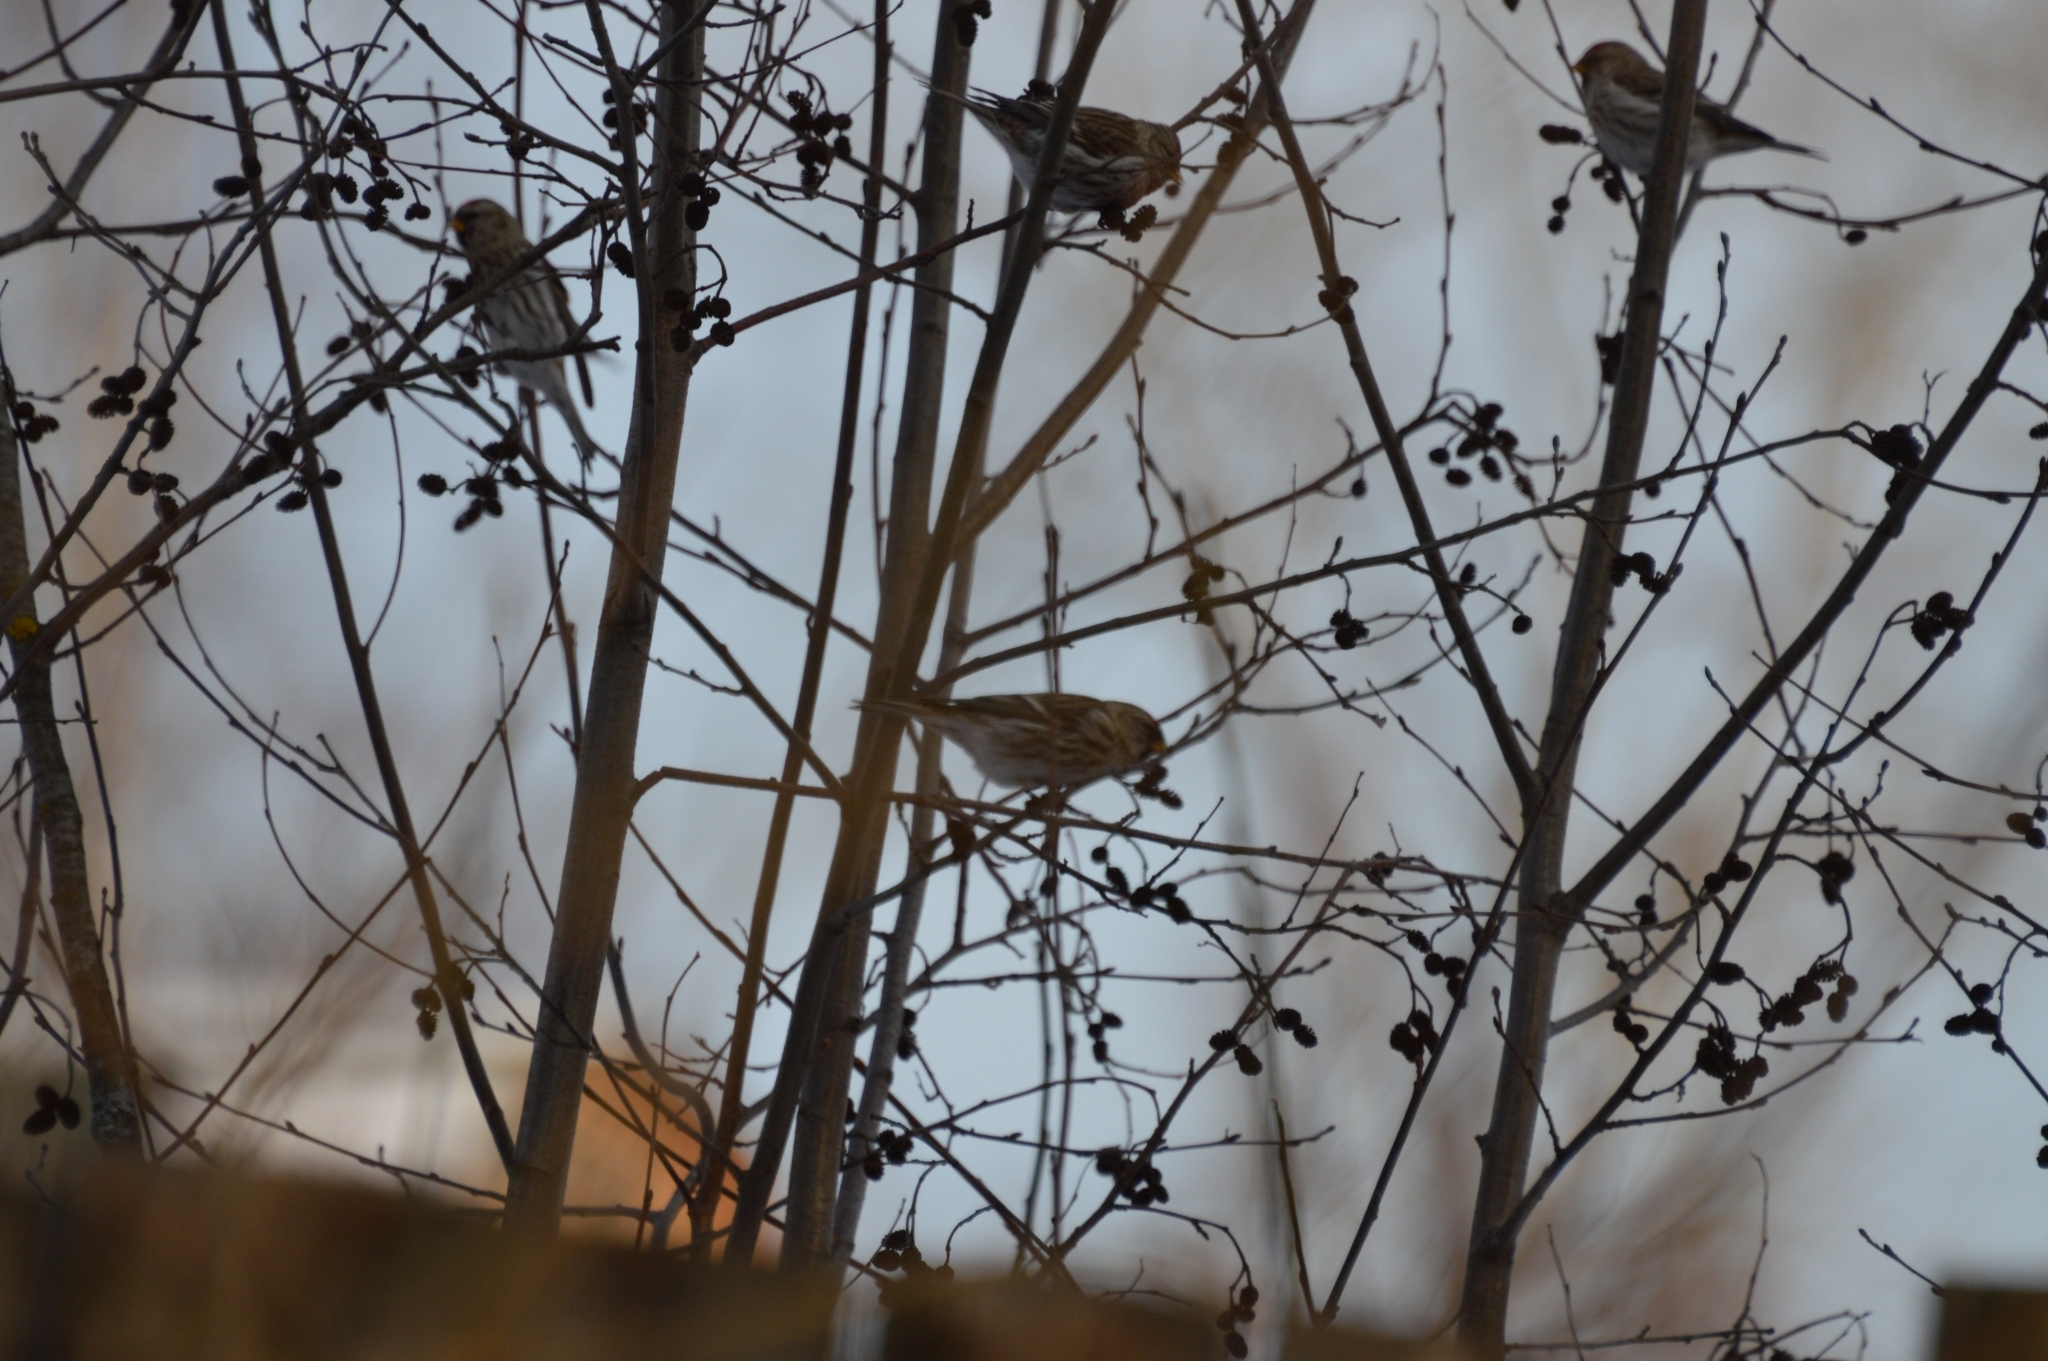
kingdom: Animalia
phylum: Chordata
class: Aves
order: Passeriformes
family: Fringillidae
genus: Acanthis
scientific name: Acanthis flammea
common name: Common redpoll
